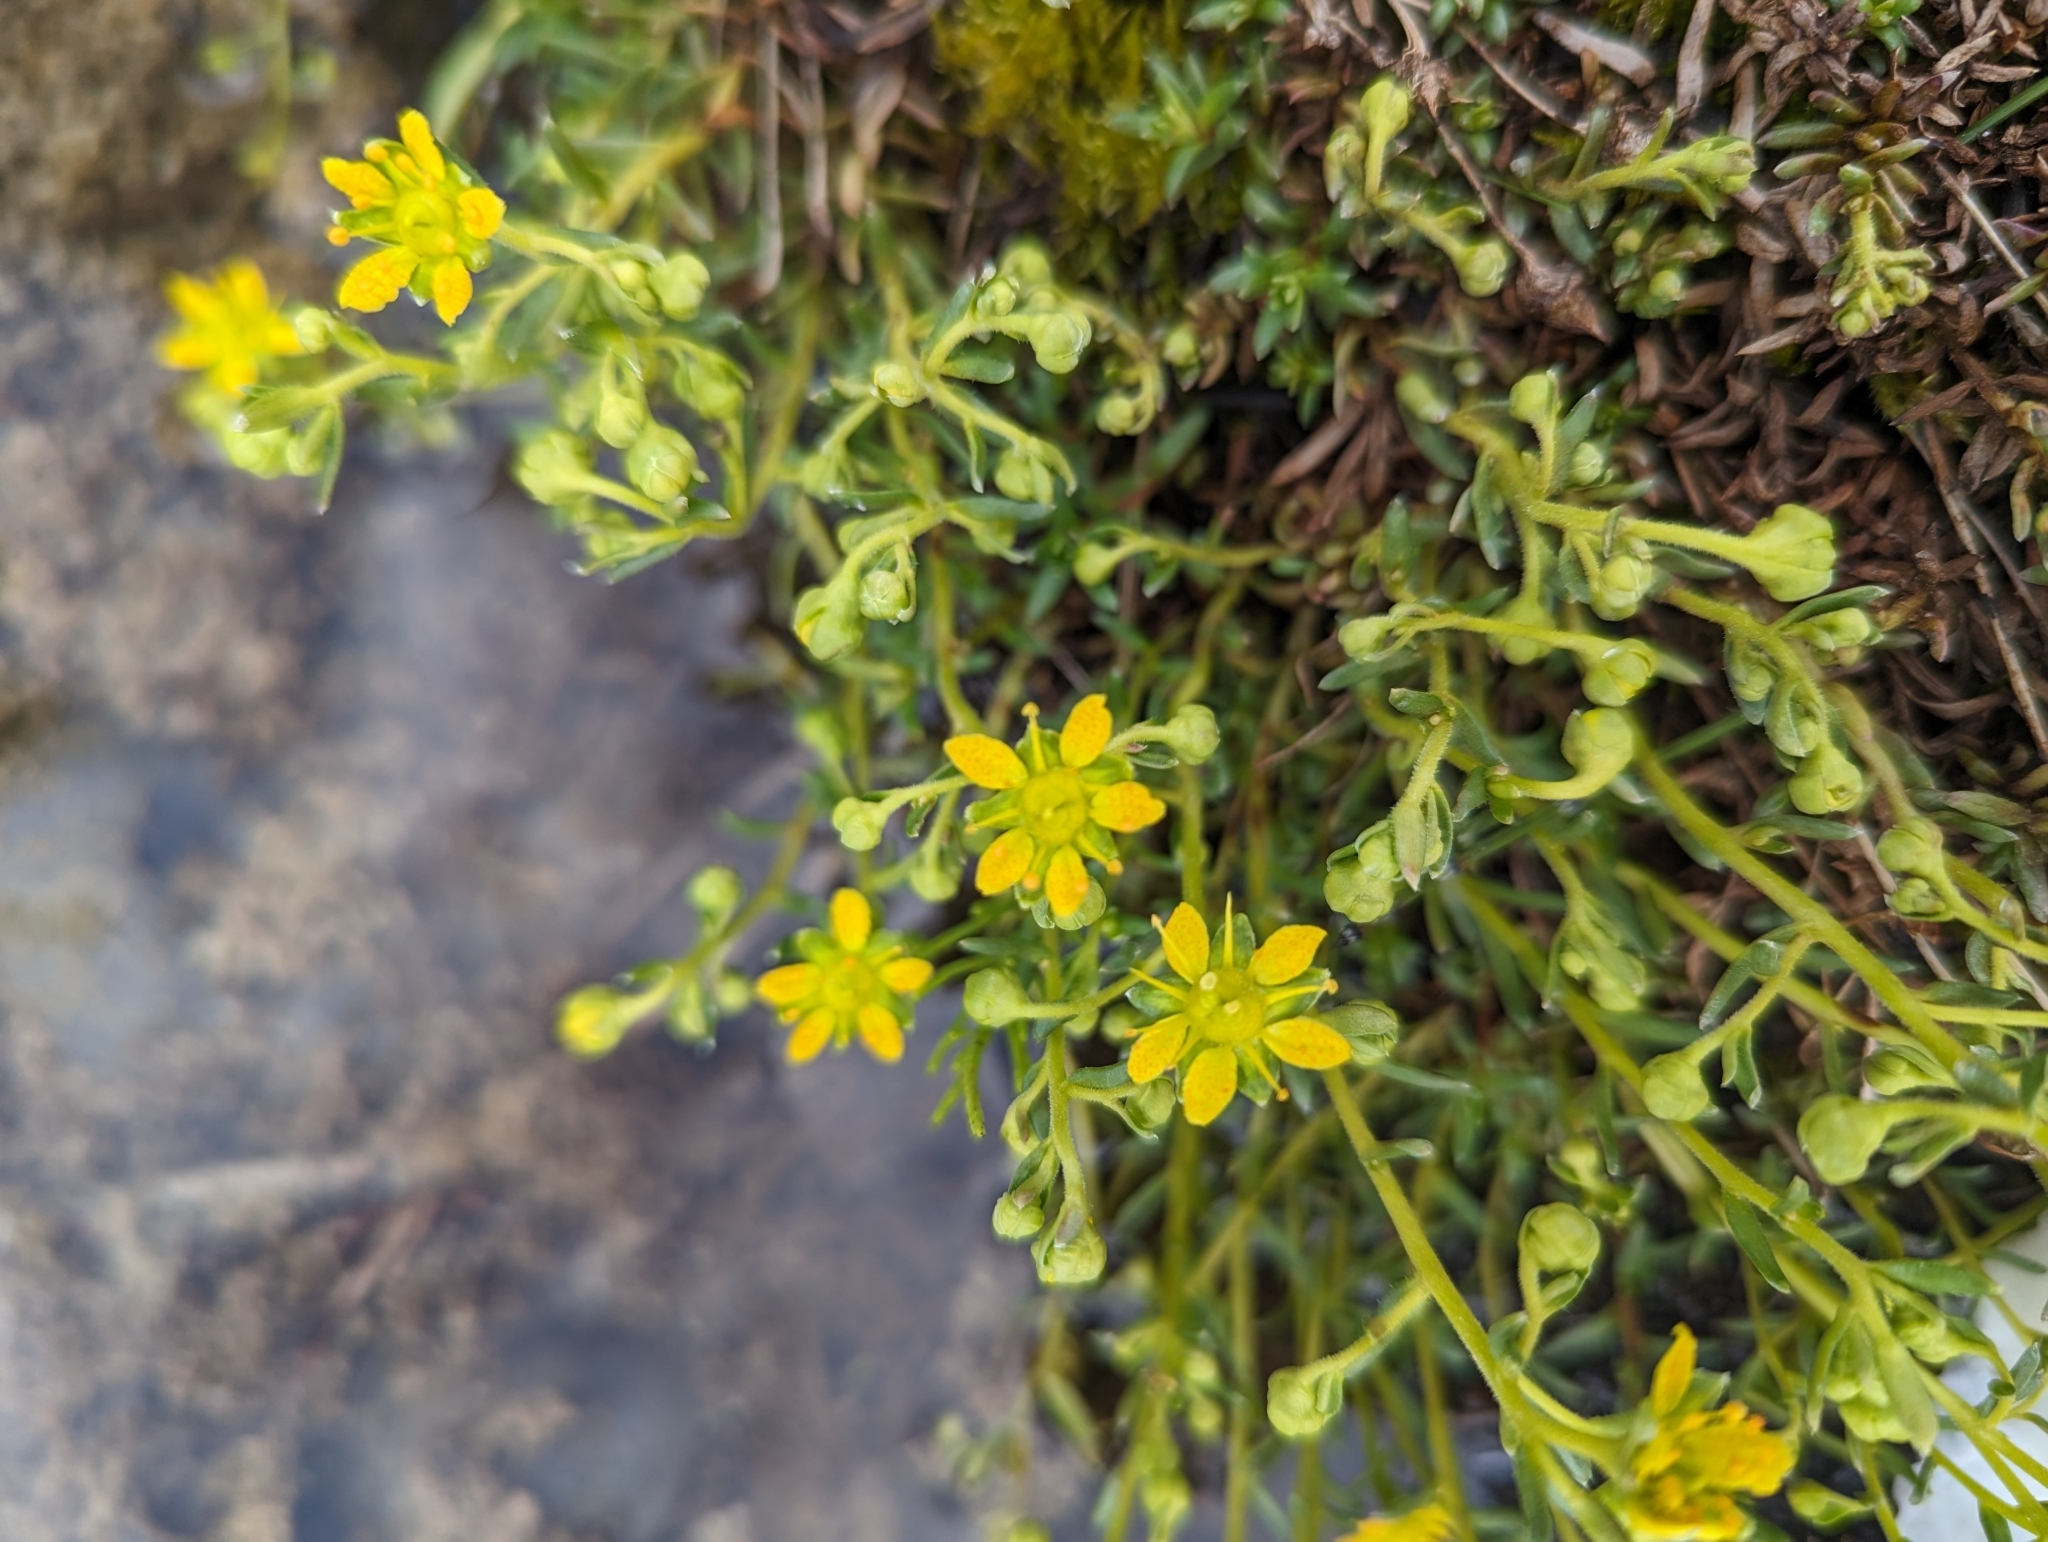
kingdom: Plantae
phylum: Tracheophyta
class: Magnoliopsida
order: Saxifragales
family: Saxifragaceae
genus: Saxifraga
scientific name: Saxifraga aizoides
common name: Yellow mountain saxifrage
